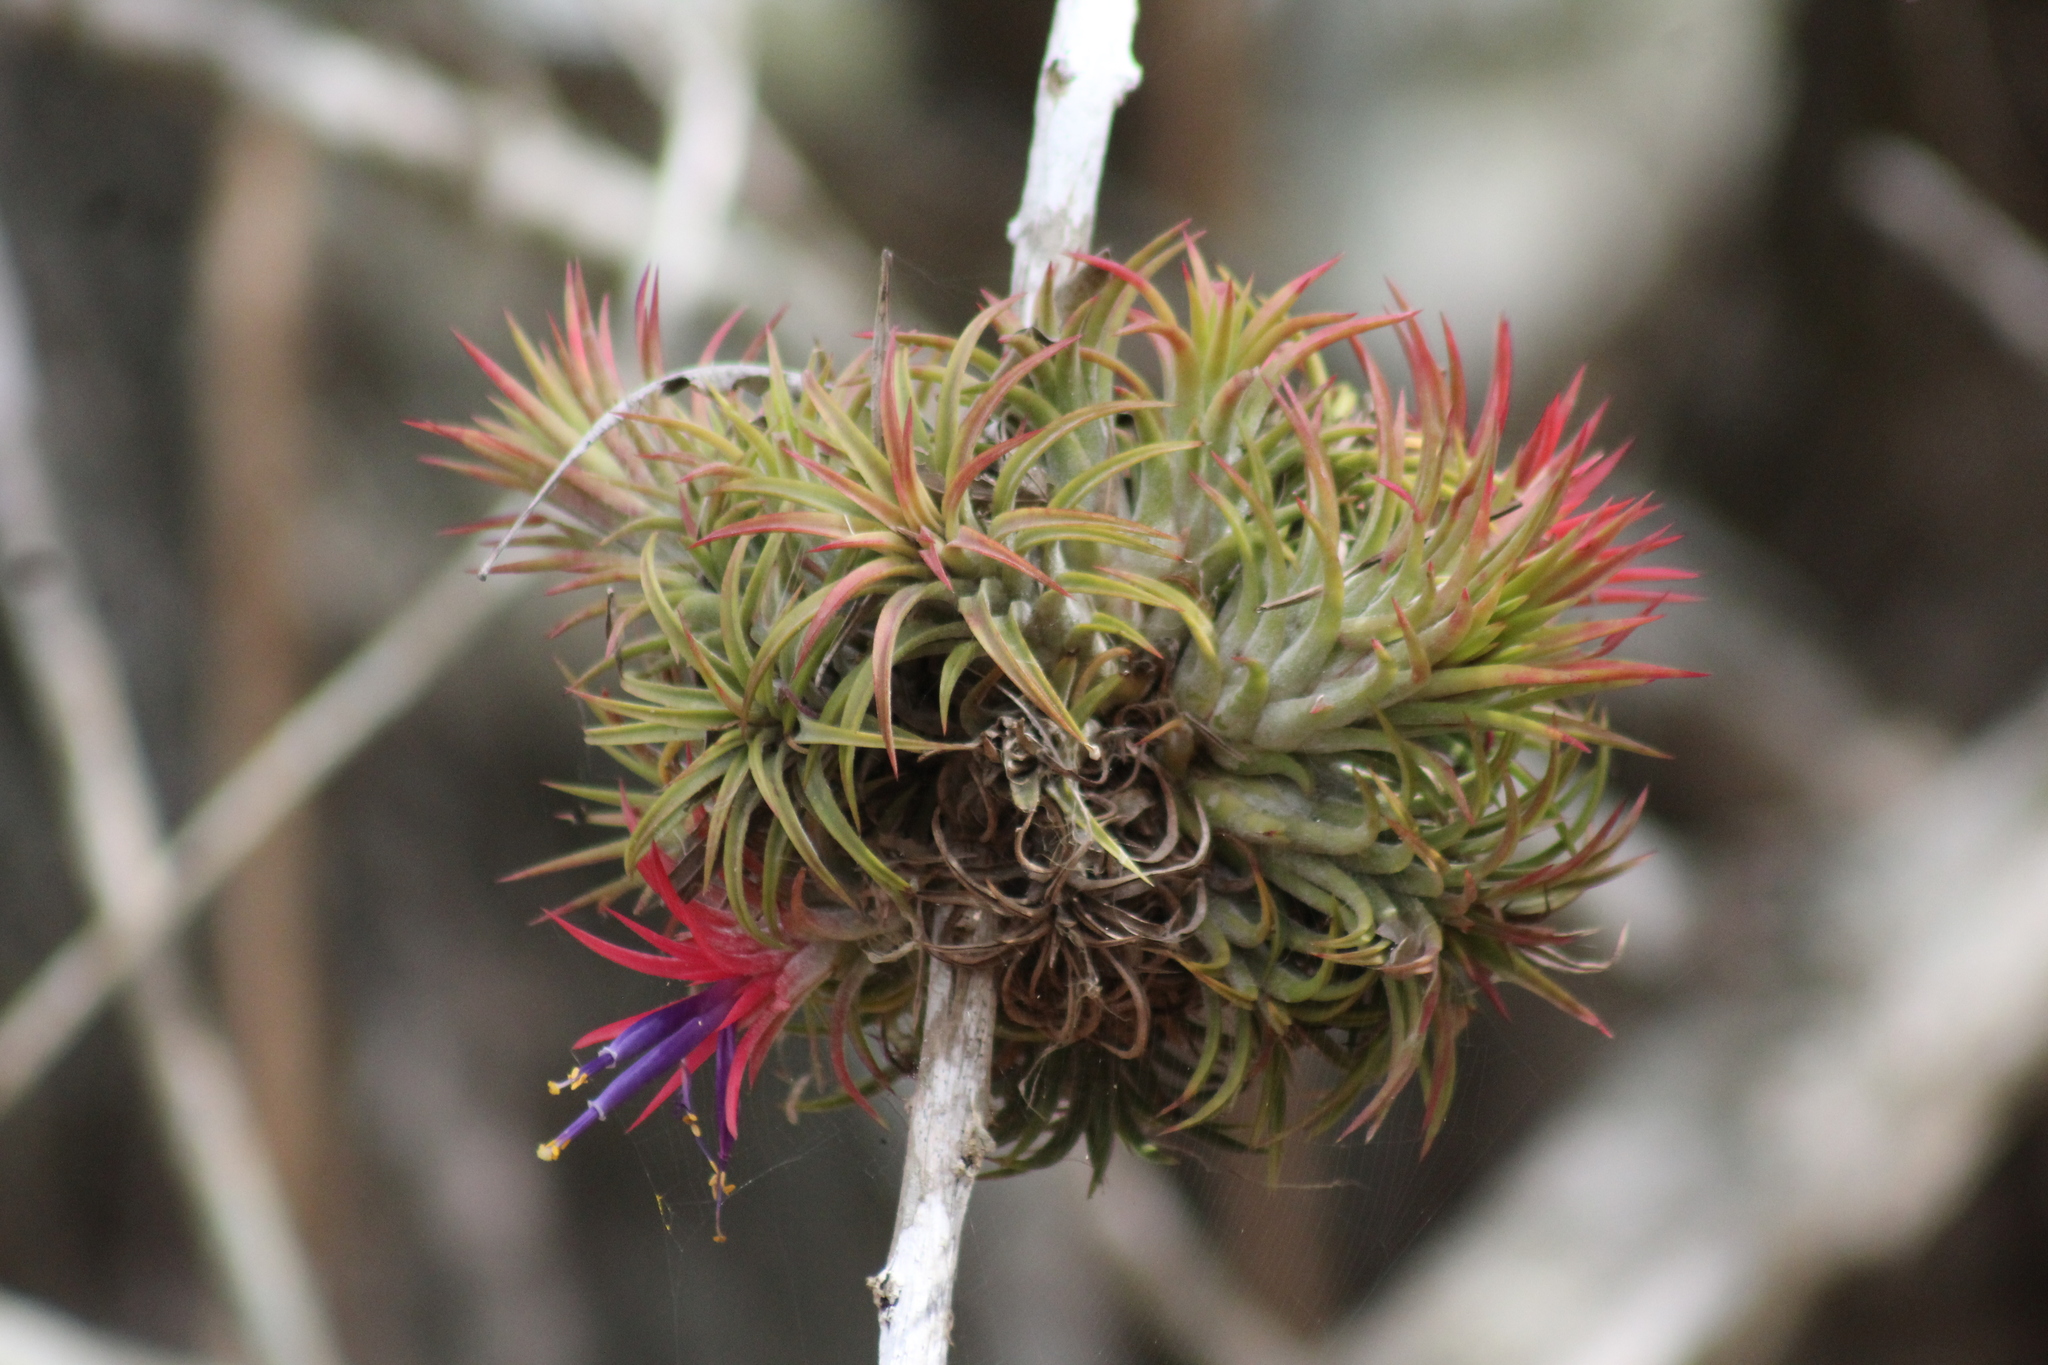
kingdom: Plantae
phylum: Tracheophyta
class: Liliopsida
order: Poales
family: Bromeliaceae
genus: Tillandsia
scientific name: Tillandsia ionantha
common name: Sky plant
